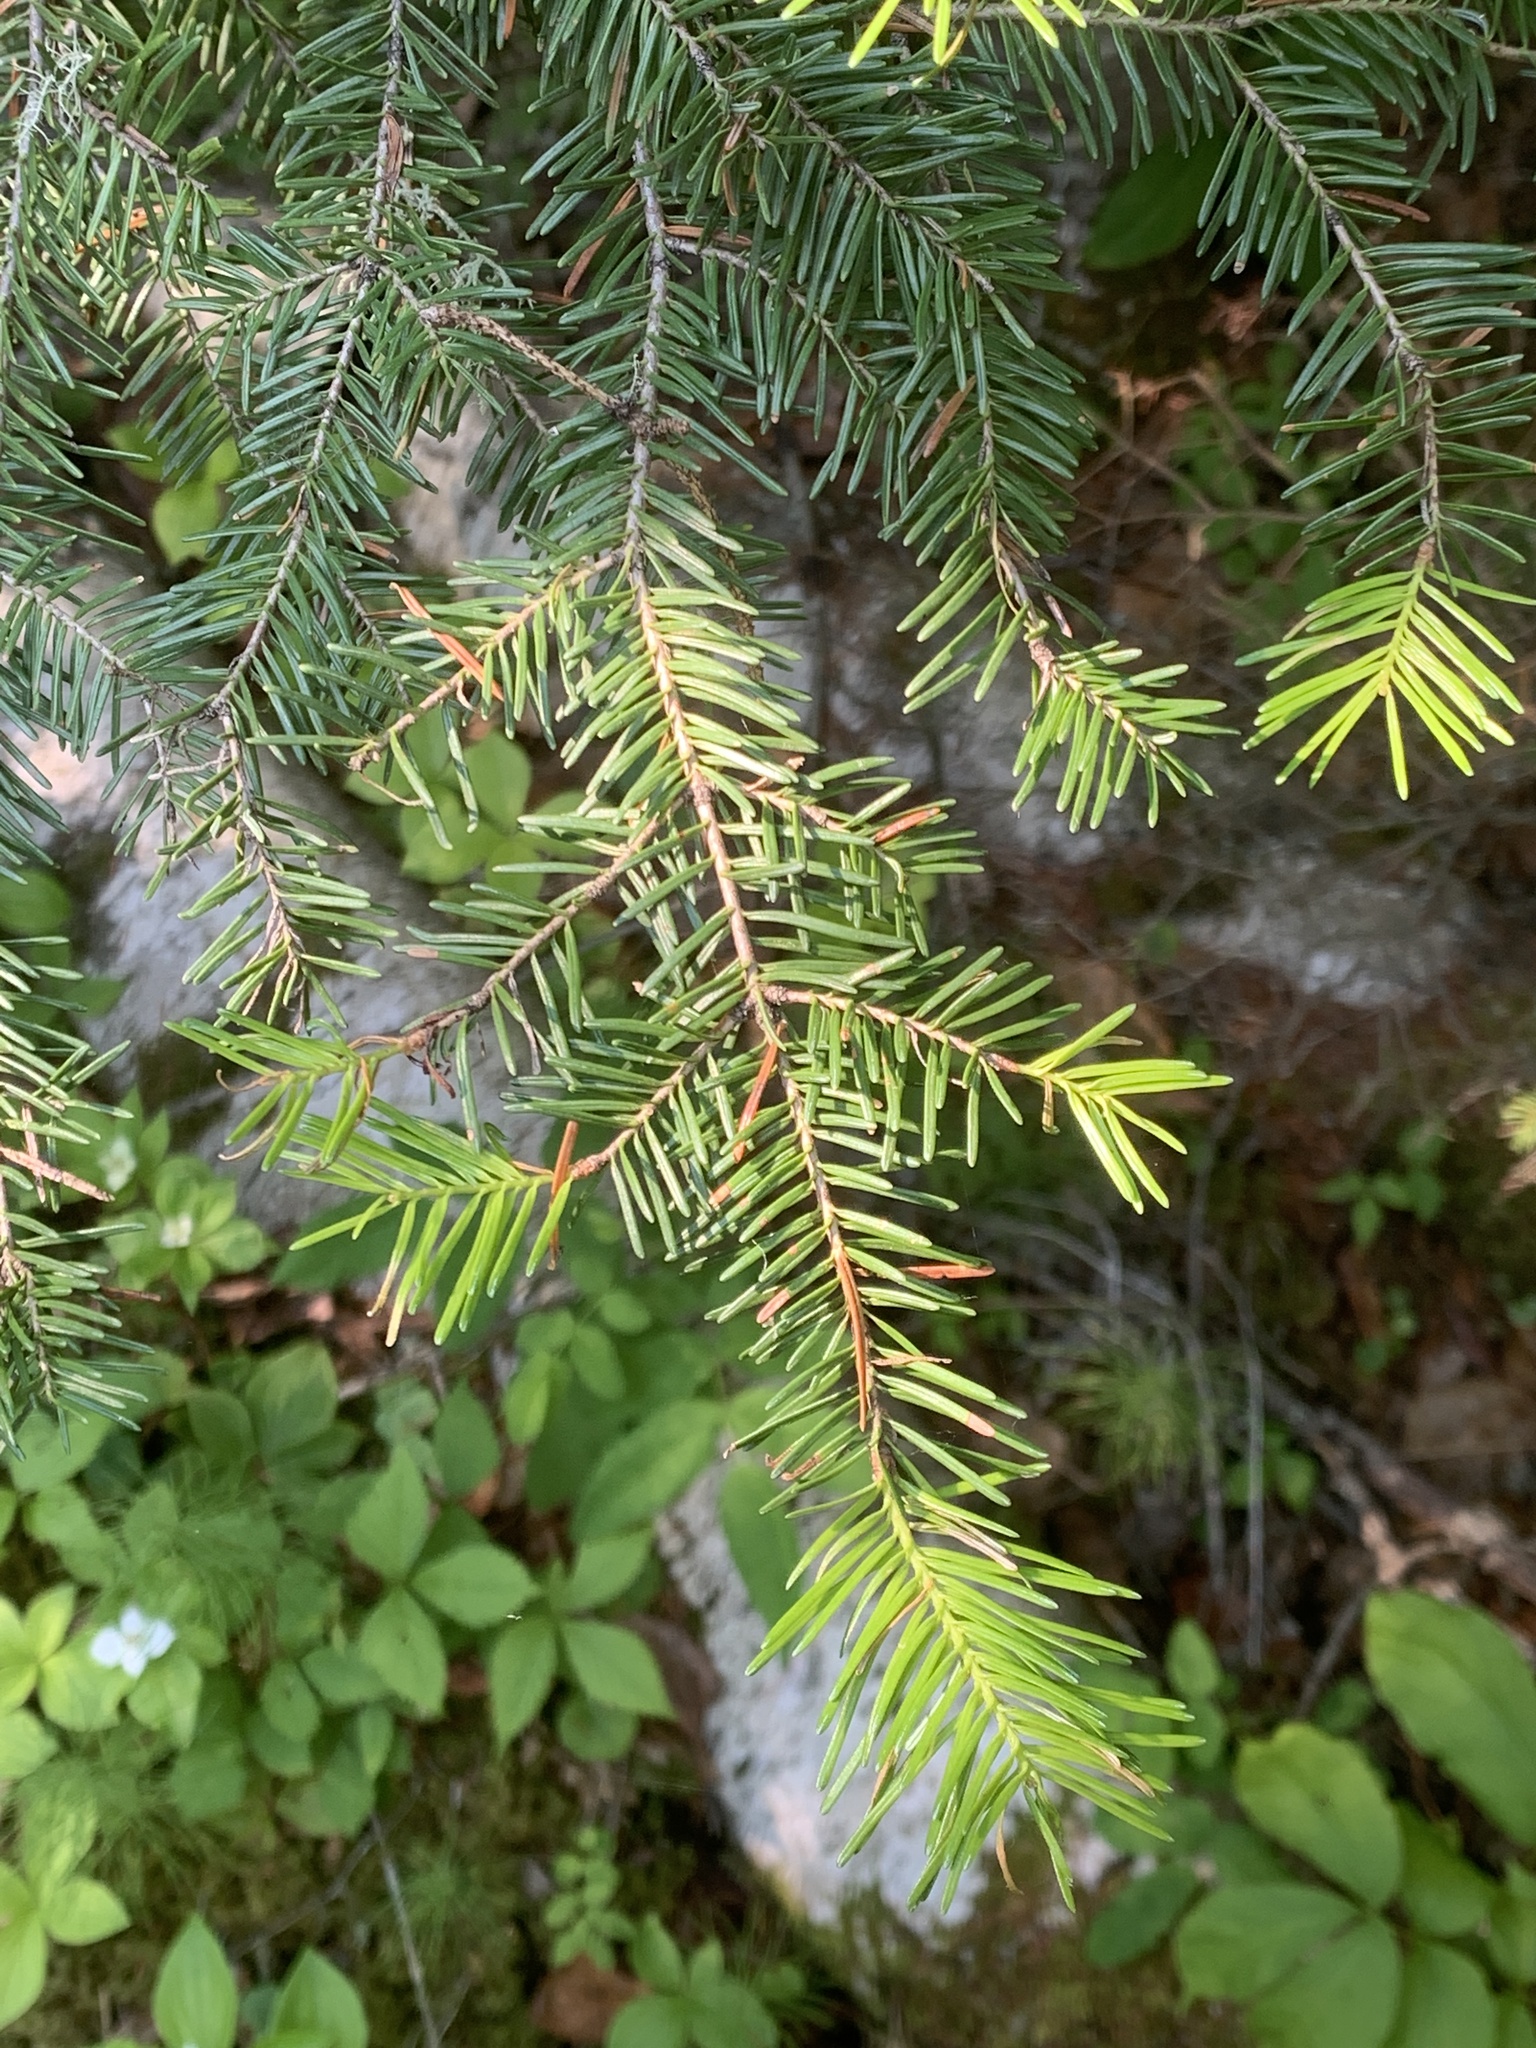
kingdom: Plantae
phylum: Tracheophyta
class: Pinopsida
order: Pinales
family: Pinaceae
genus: Abies
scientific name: Abies balsamea
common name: Balsam fir
